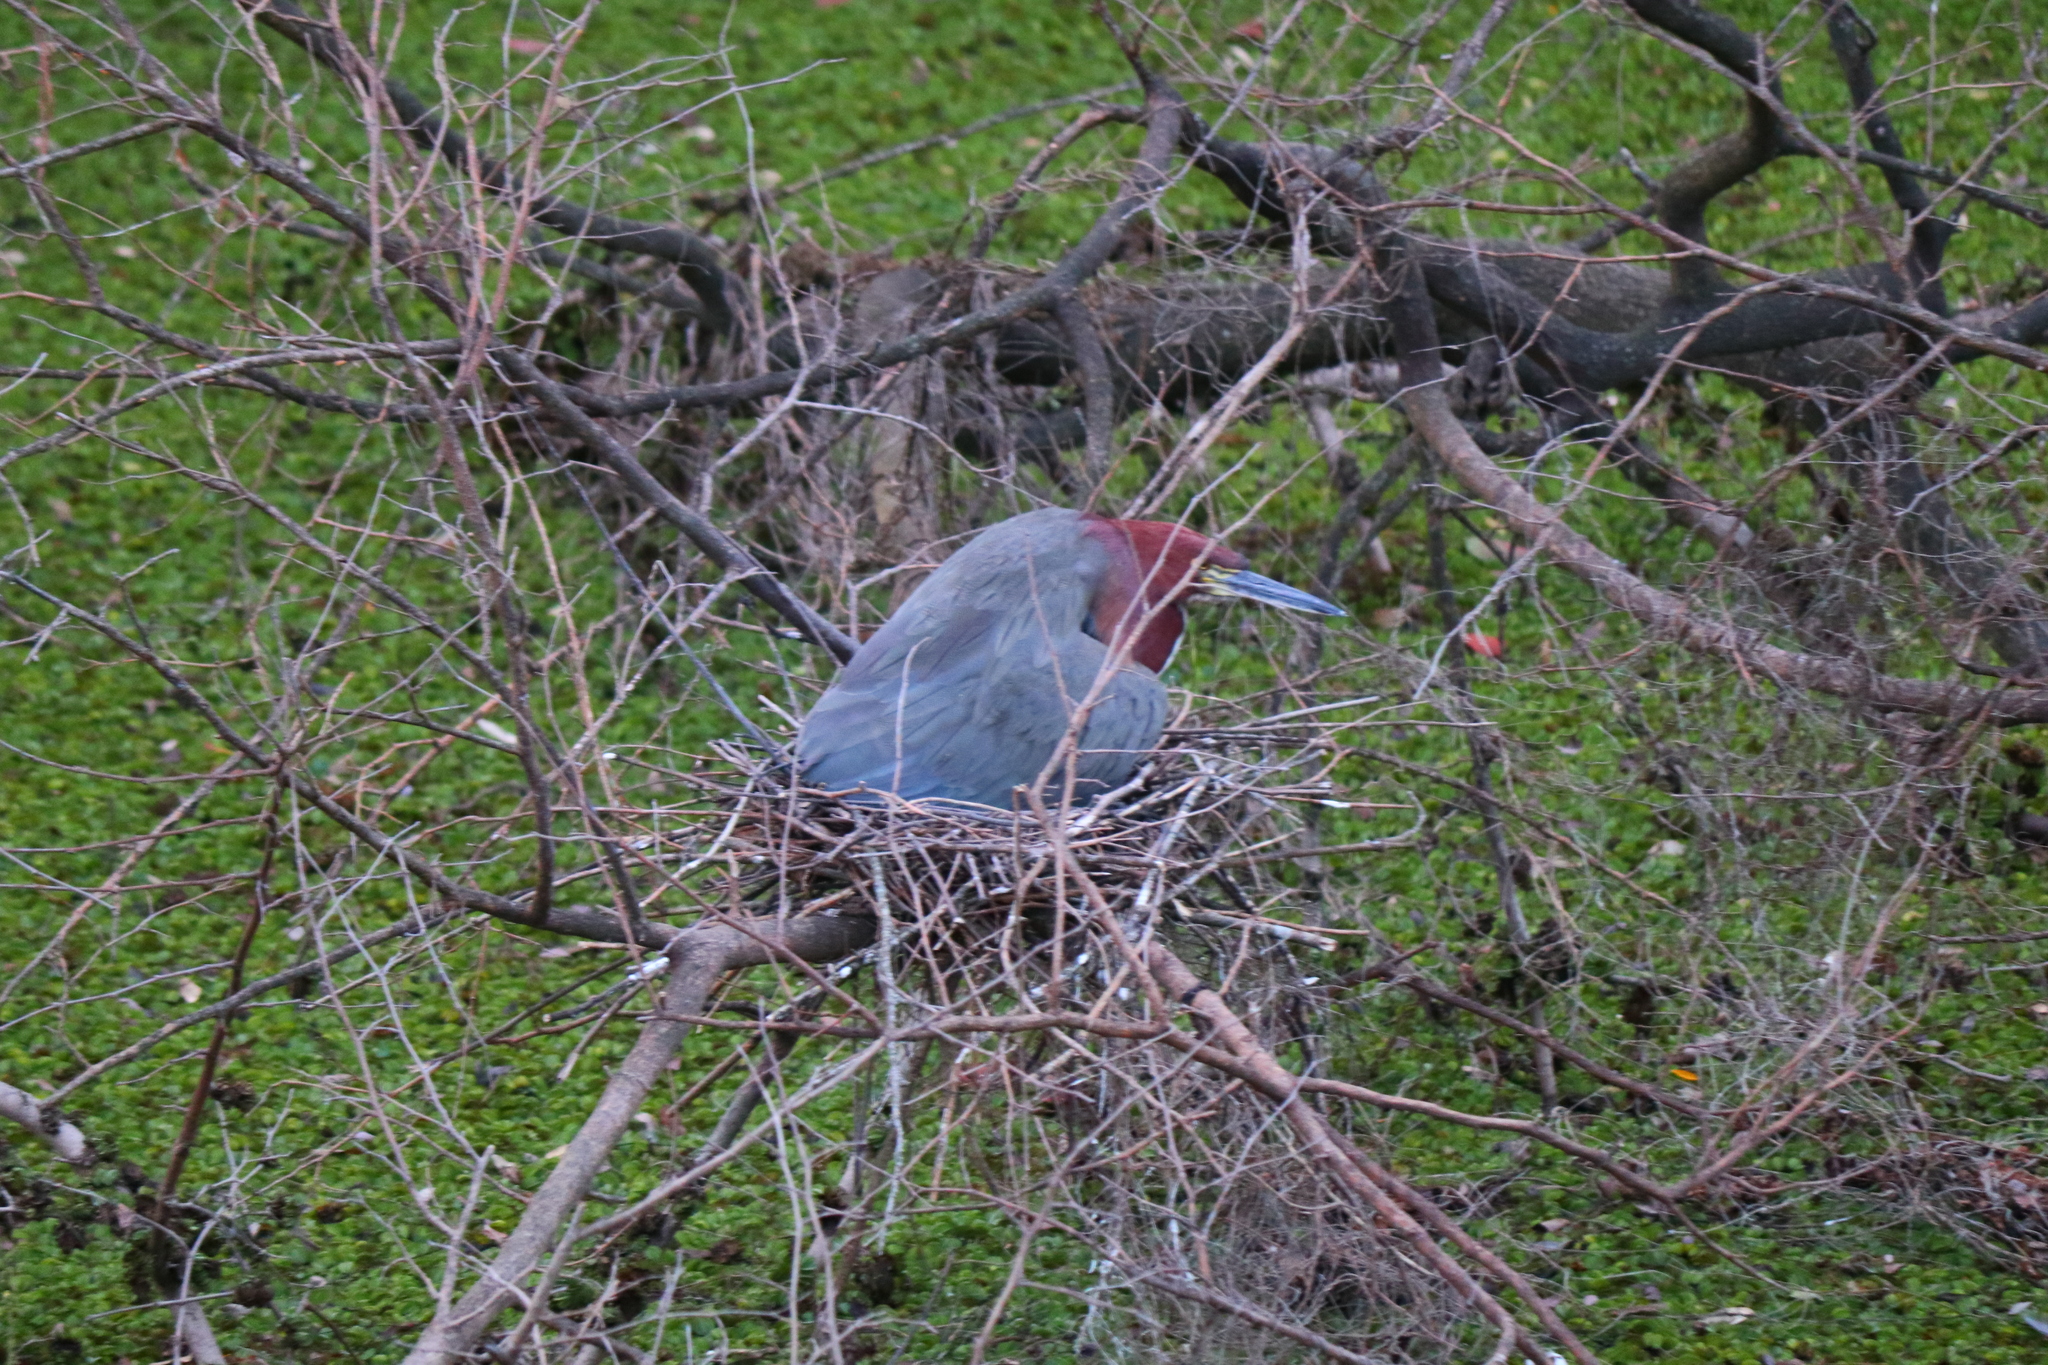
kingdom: Animalia
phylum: Chordata
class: Aves
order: Pelecaniformes
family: Ardeidae
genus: Tigrisoma
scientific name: Tigrisoma lineatum
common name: Rufescent tiger-heron
